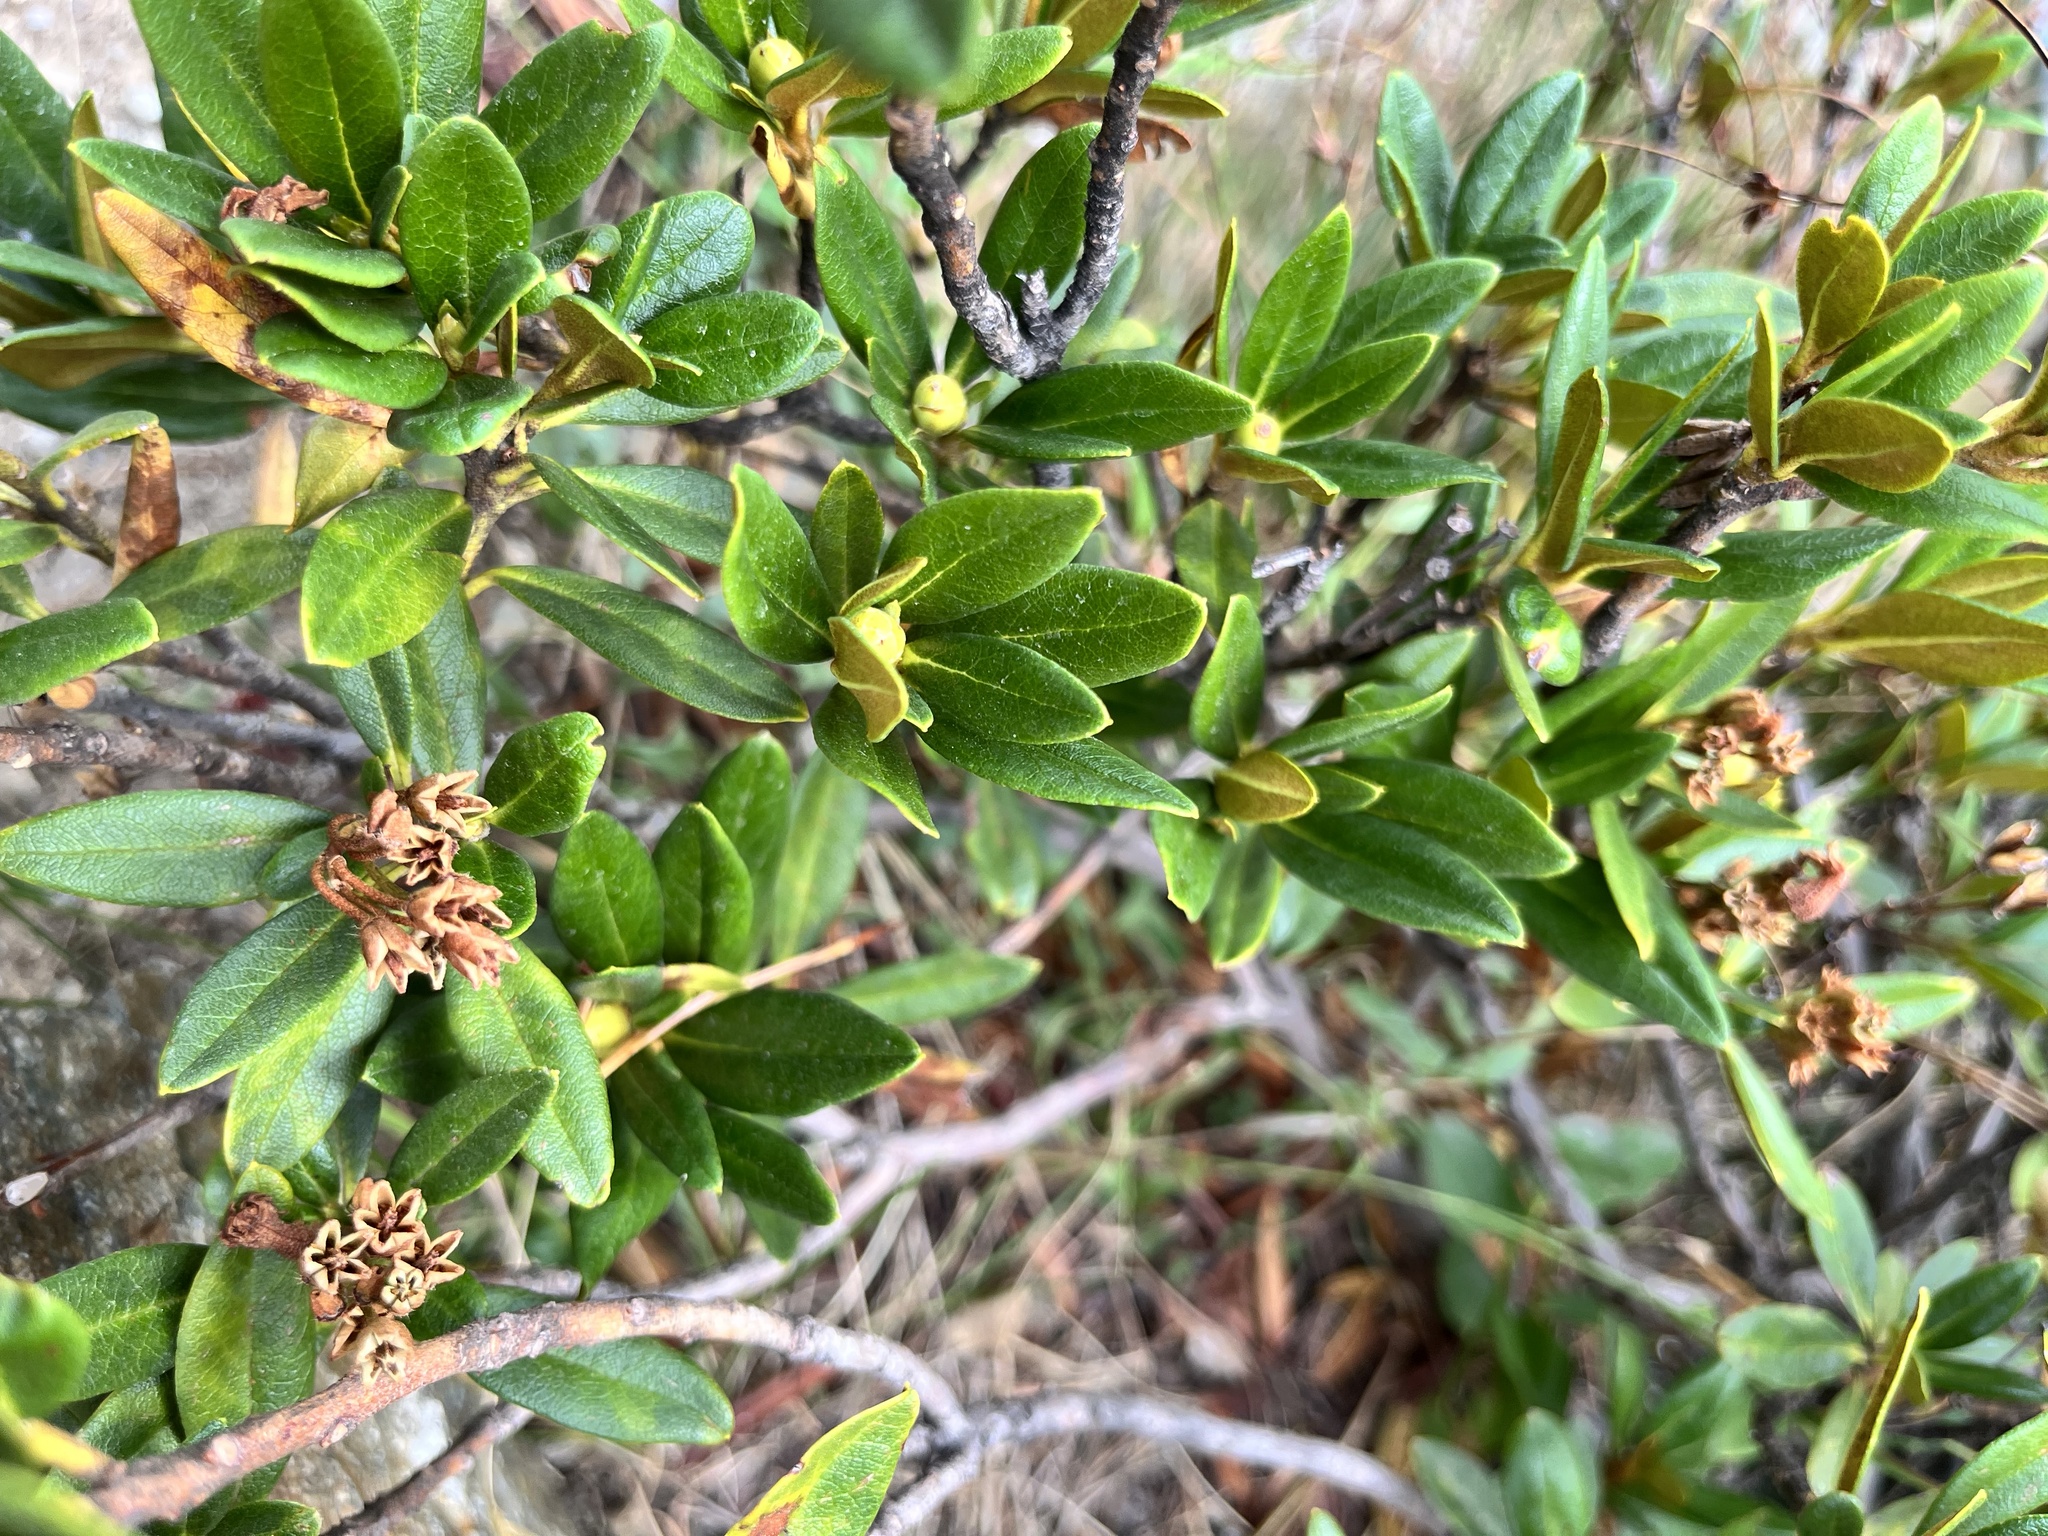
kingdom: Plantae
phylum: Tracheophyta
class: Magnoliopsida
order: Ericales
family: Ericaceae
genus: Rhododendron
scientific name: Rhododendron ferrugineum
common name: Alpenrose
